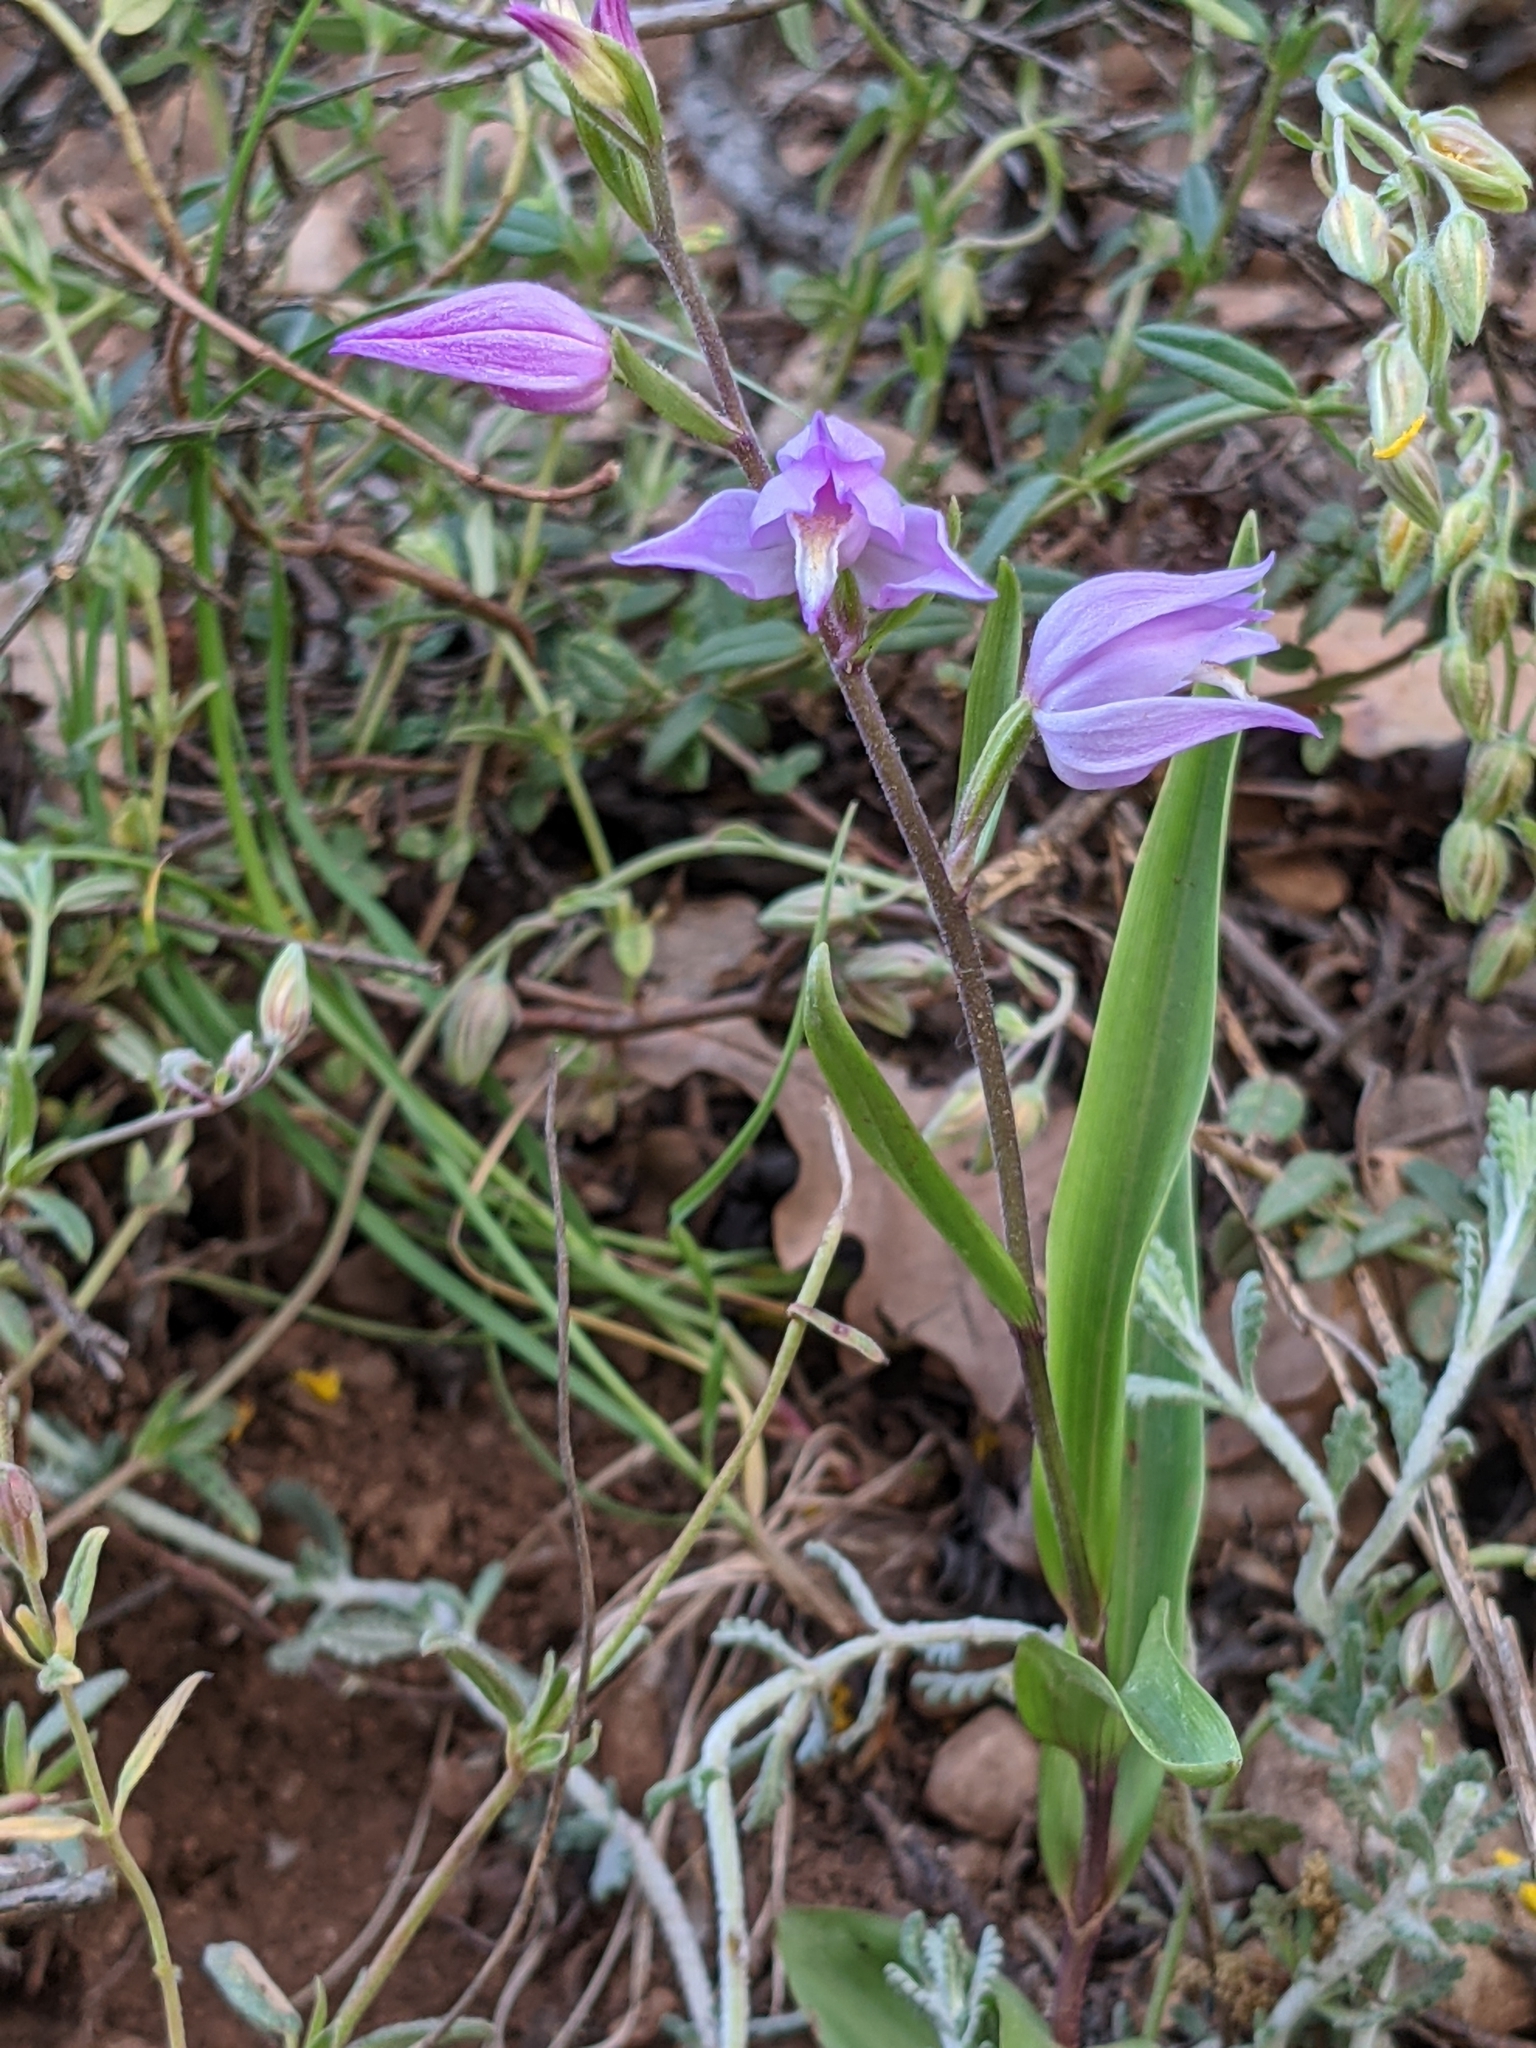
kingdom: Plantae
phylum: Tracheophyta
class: Liliopsida
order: Asparagales
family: Orchidaceae
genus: Cephalanthera
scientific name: Cephalanthera rubra
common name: Red helleborine
